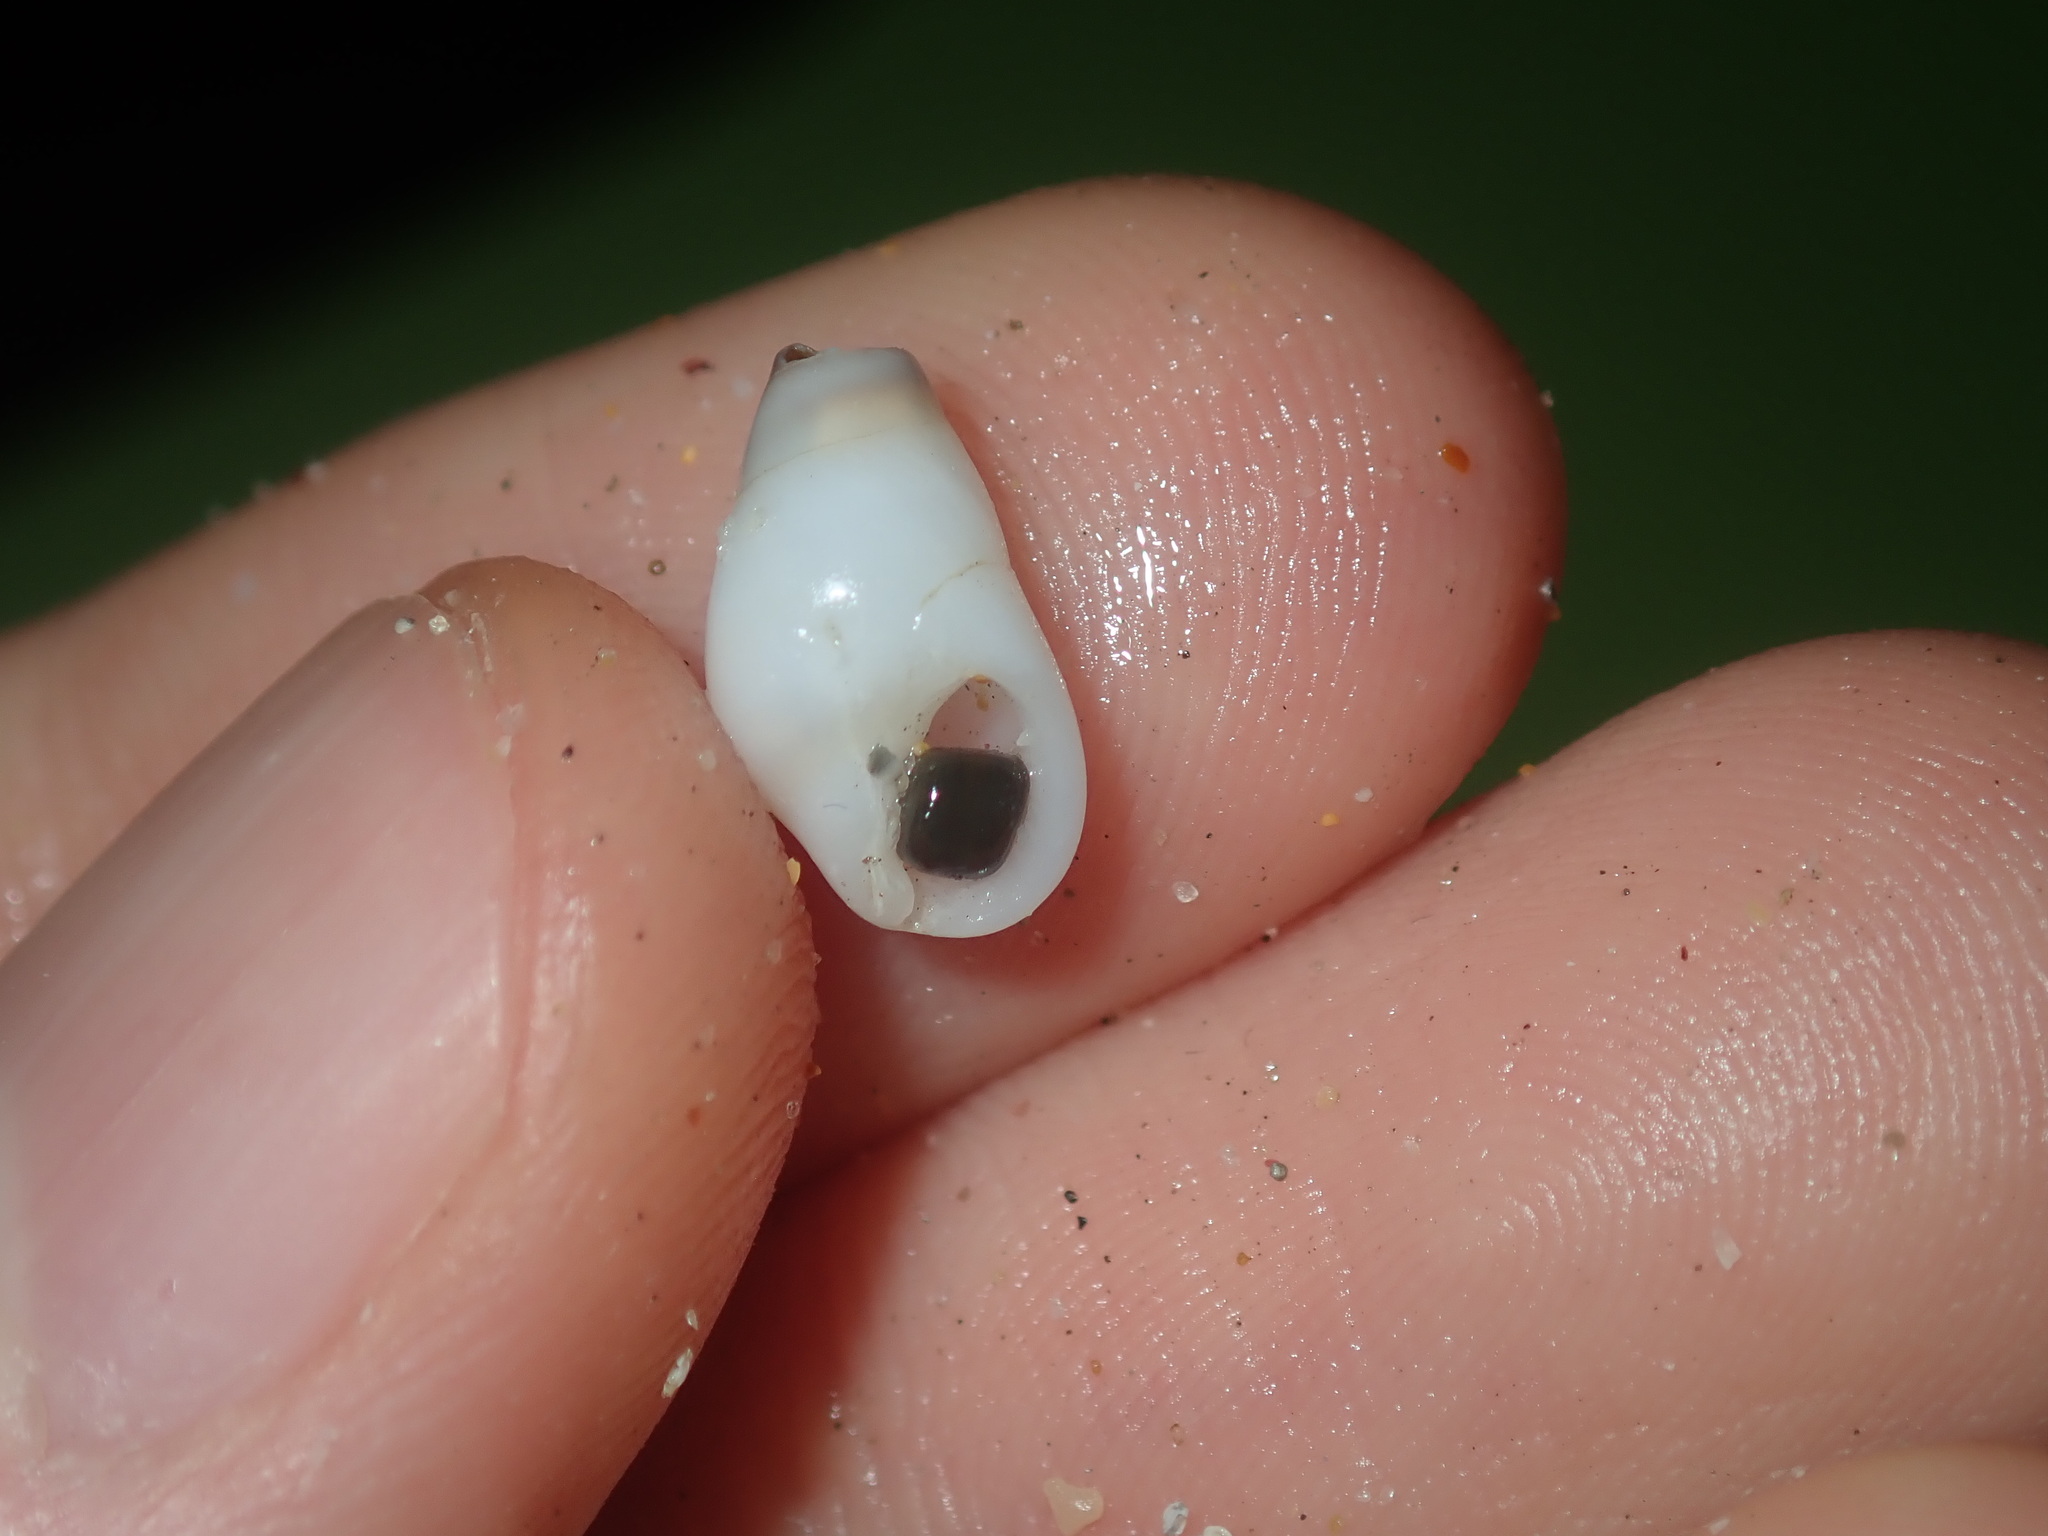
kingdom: Animalia
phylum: Mollusca
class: Gastropoda
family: Planaxidae
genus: Hinea
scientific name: Hinea brasiliana
